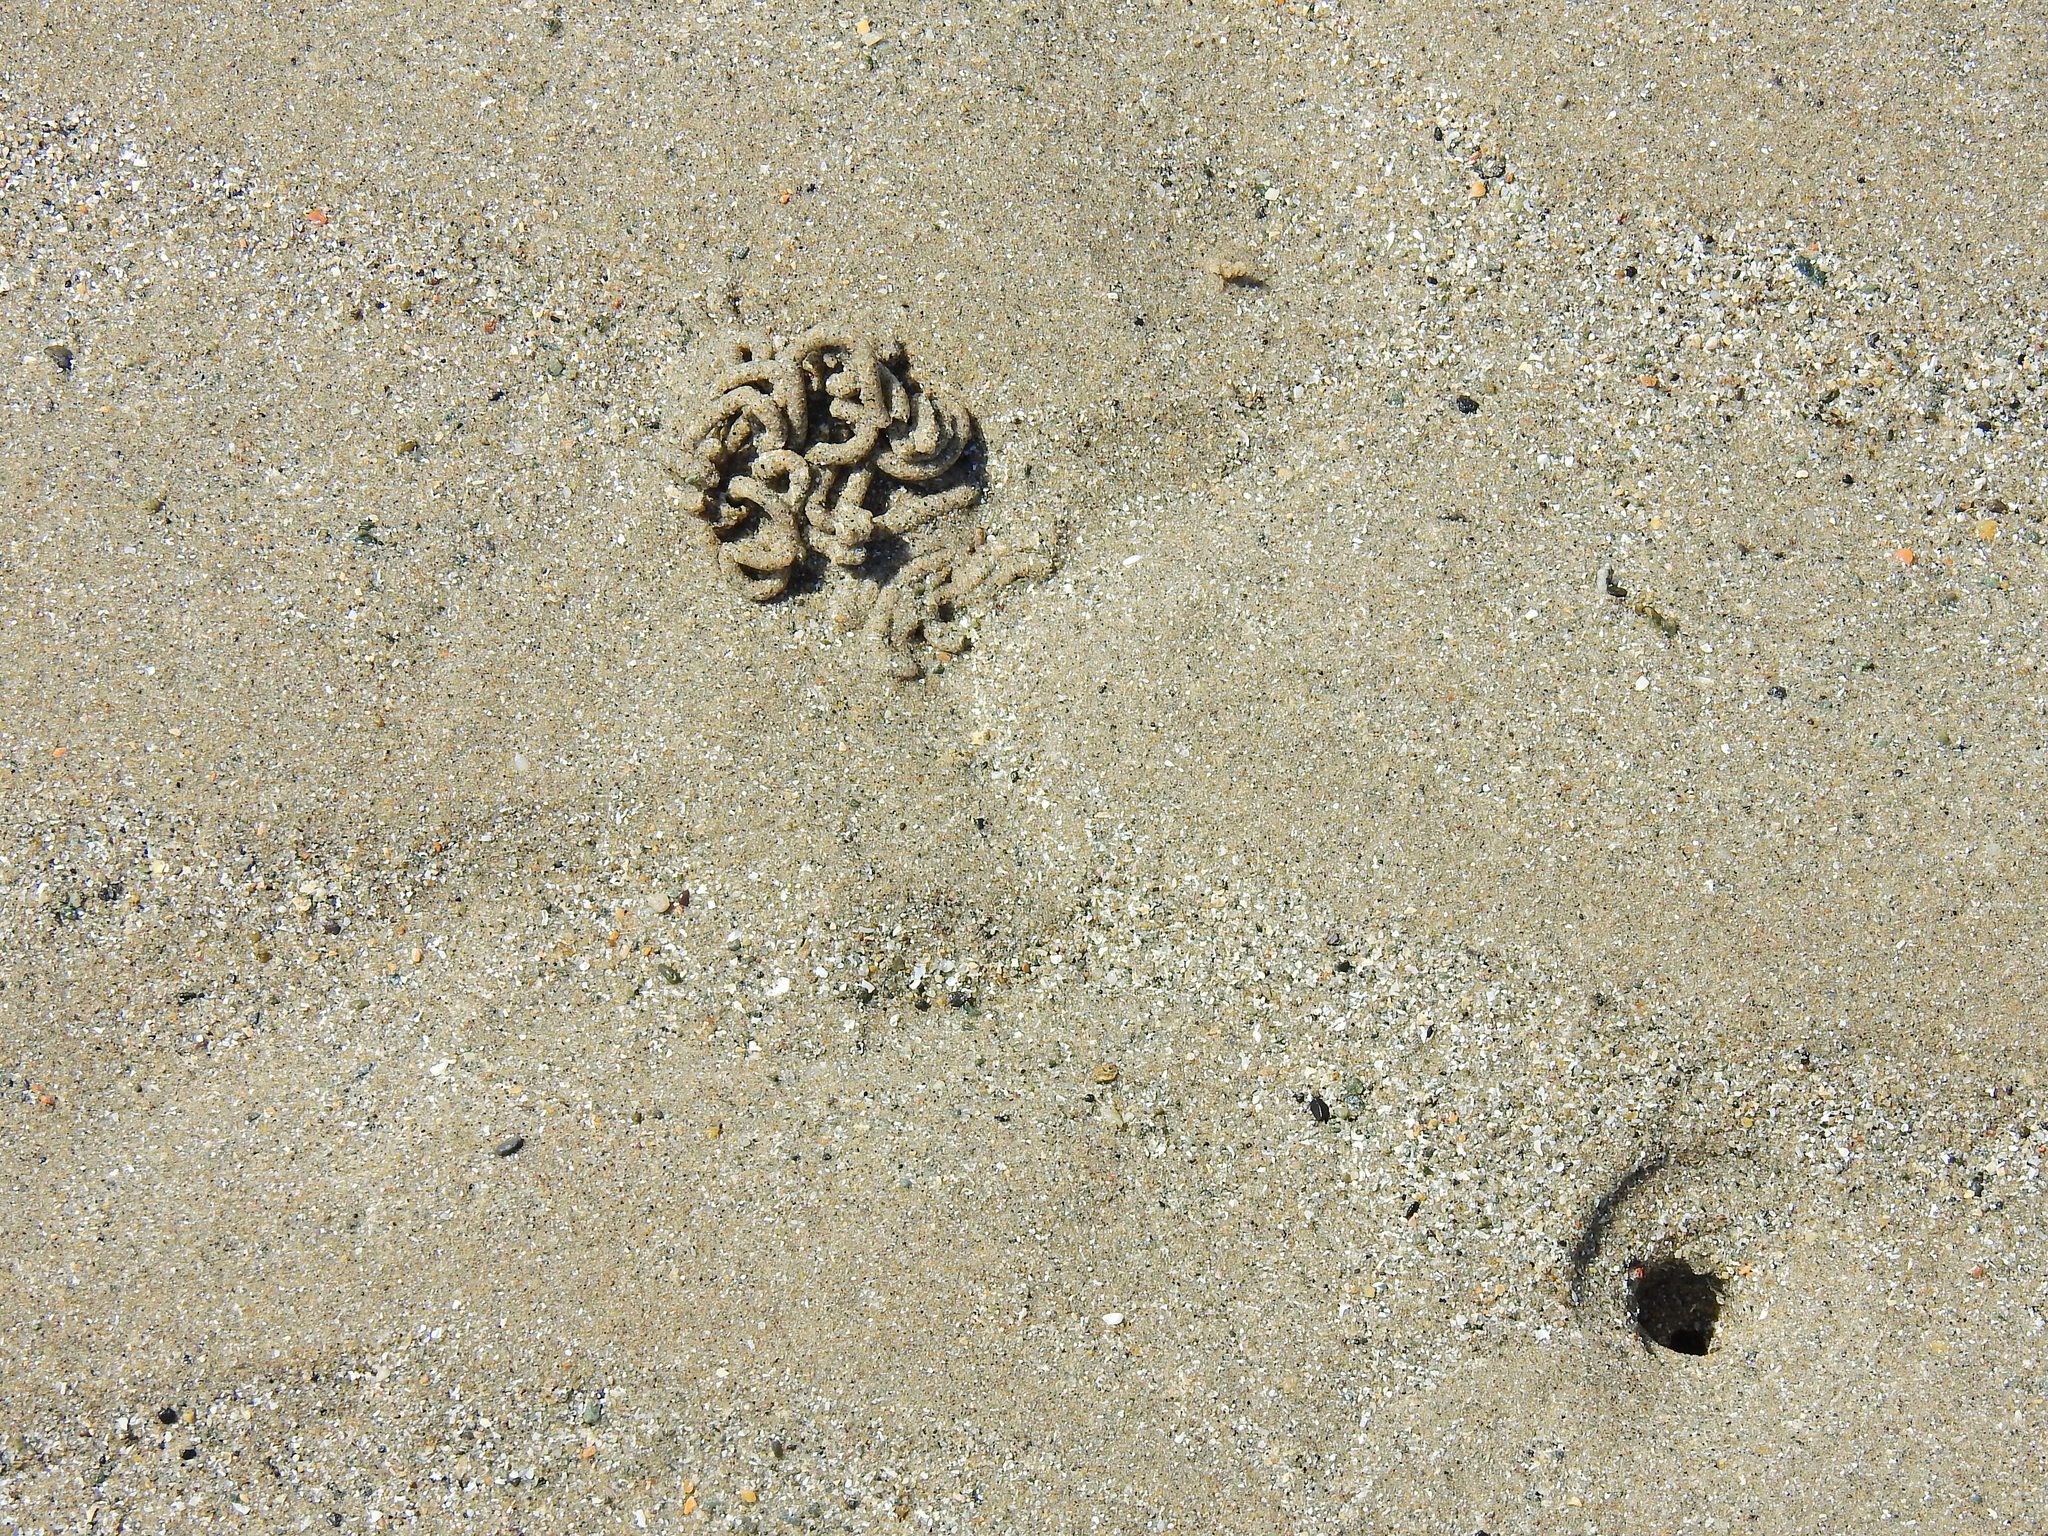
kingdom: Animalia
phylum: Annelida
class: Polychaeta
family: Arenicolidae
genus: Arenicola
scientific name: Arenicola marina
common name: Blow lugworm
